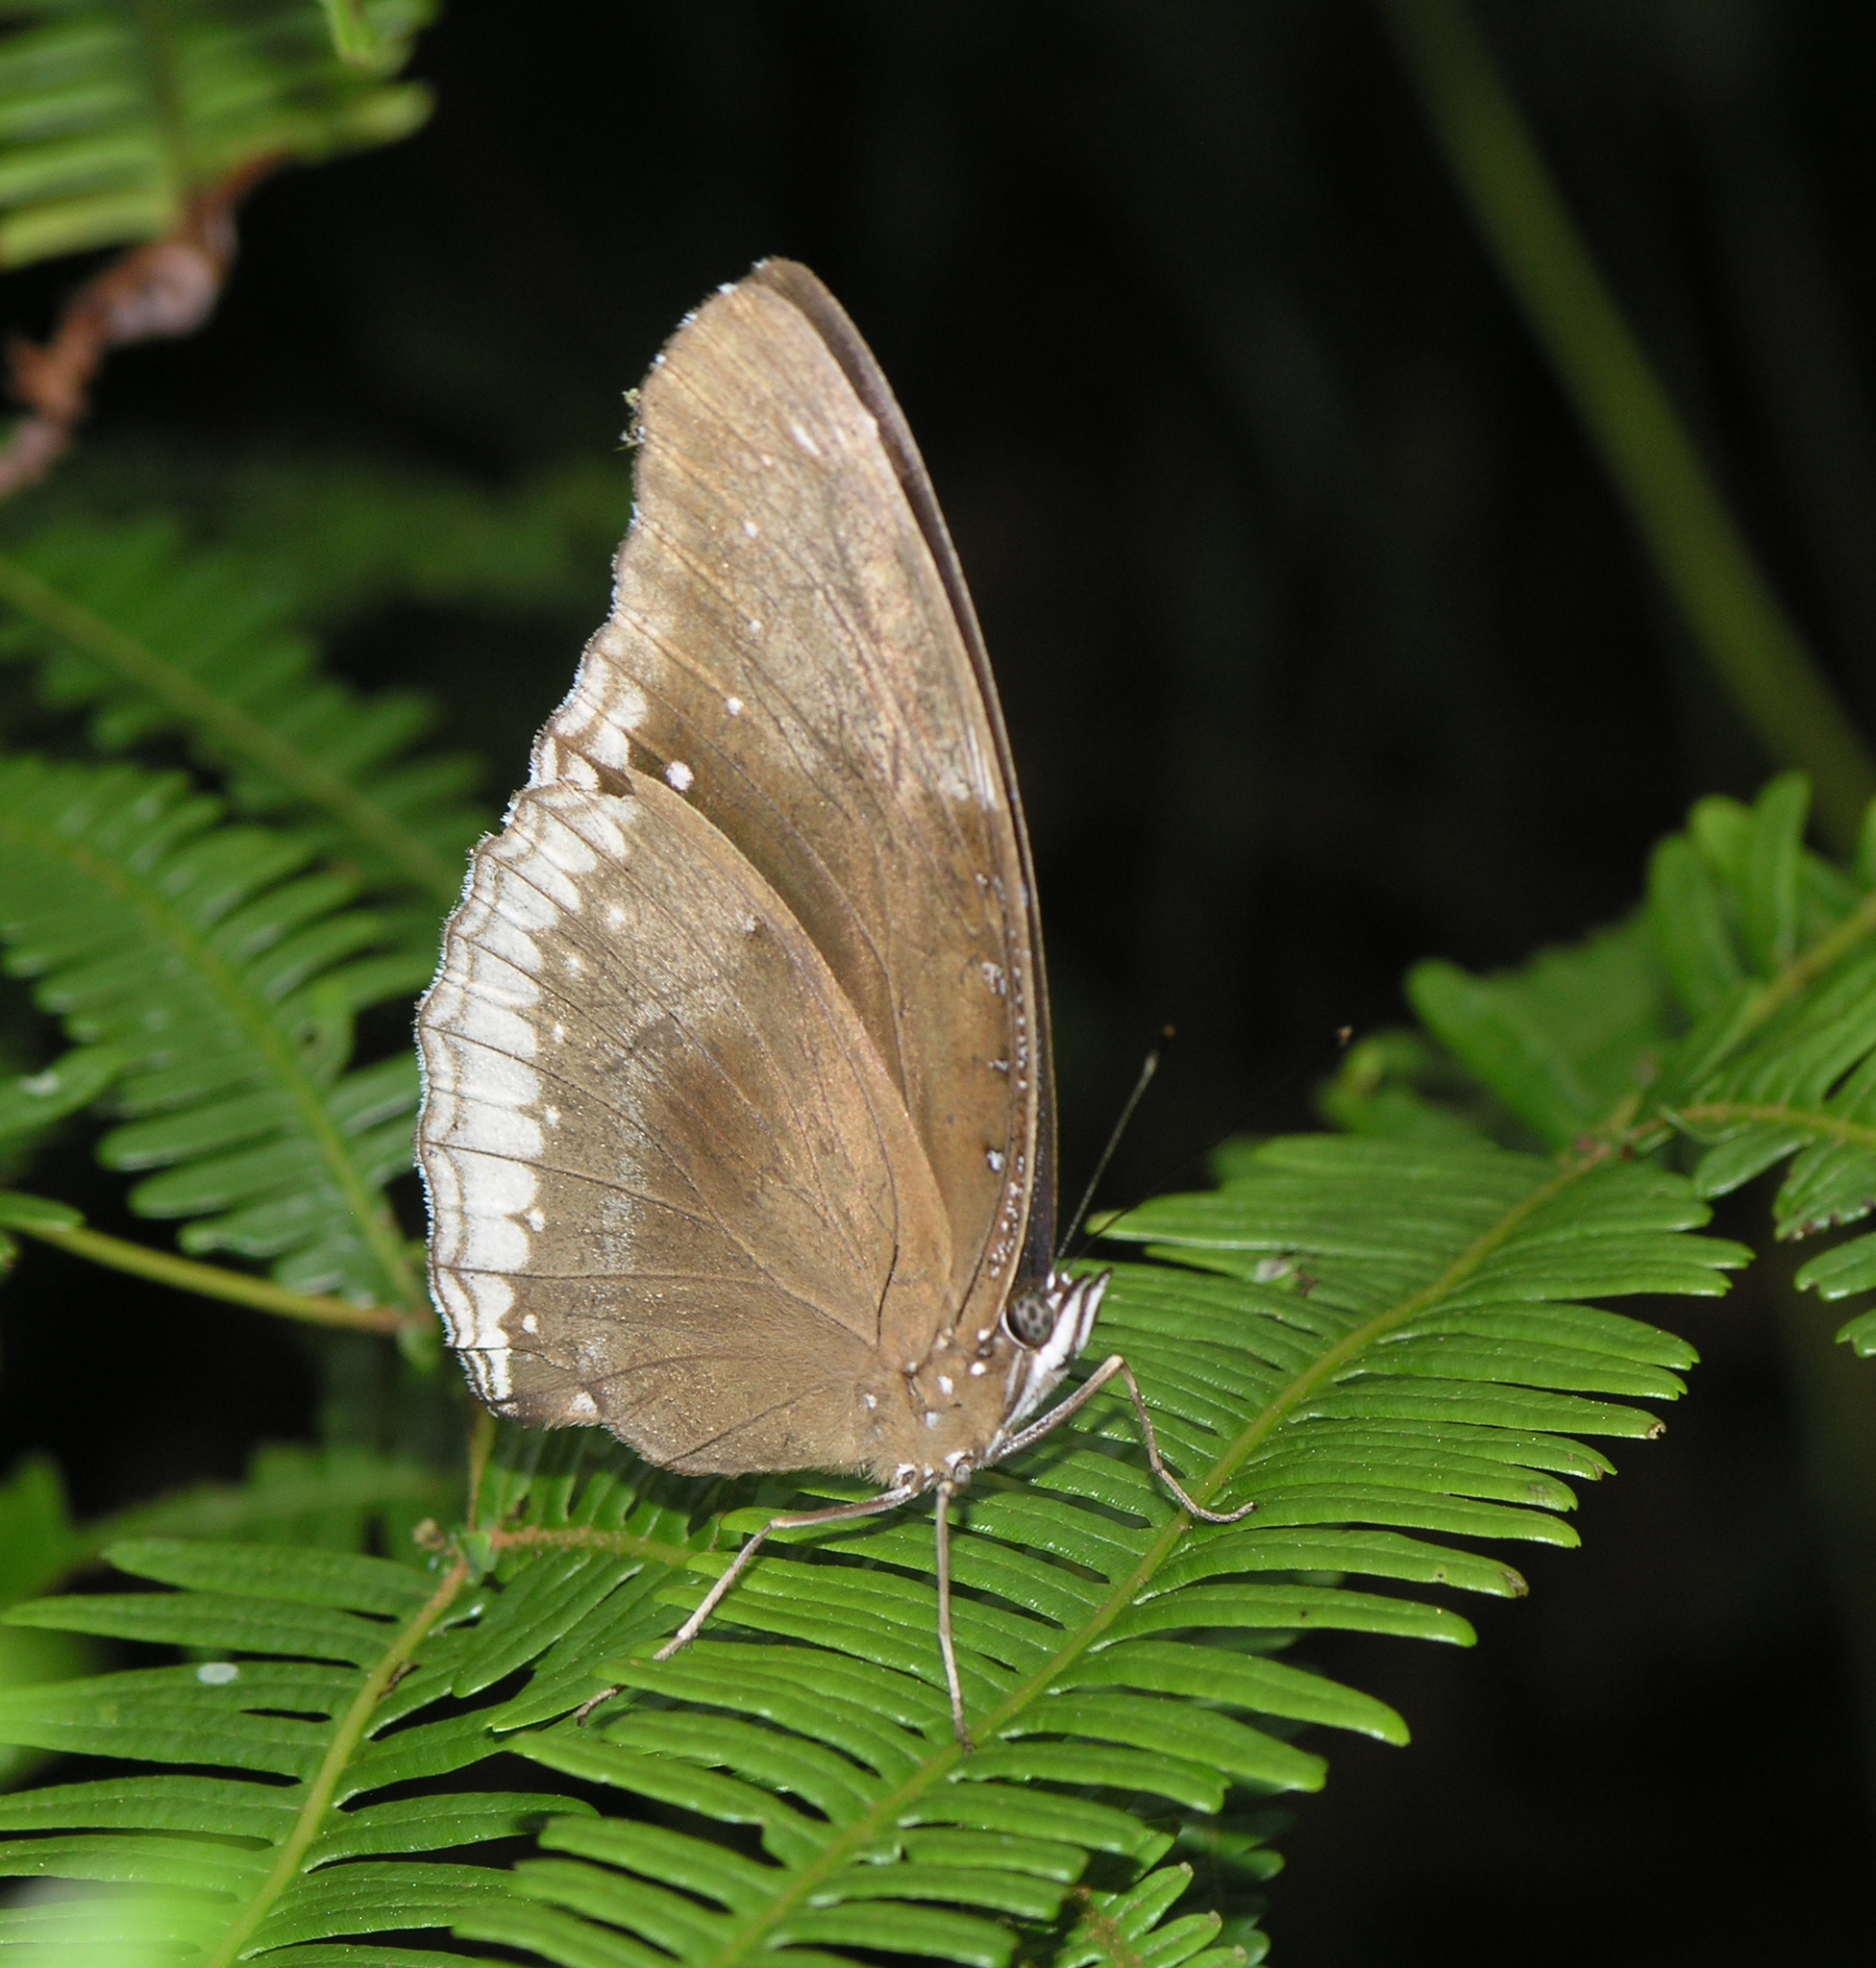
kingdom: Animalia
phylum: Arthropoda
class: Insecta
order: Lepidoptera
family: Nymphalidae
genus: Hypolimnas
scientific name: Hypolimnas bolina
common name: Great eggfly
